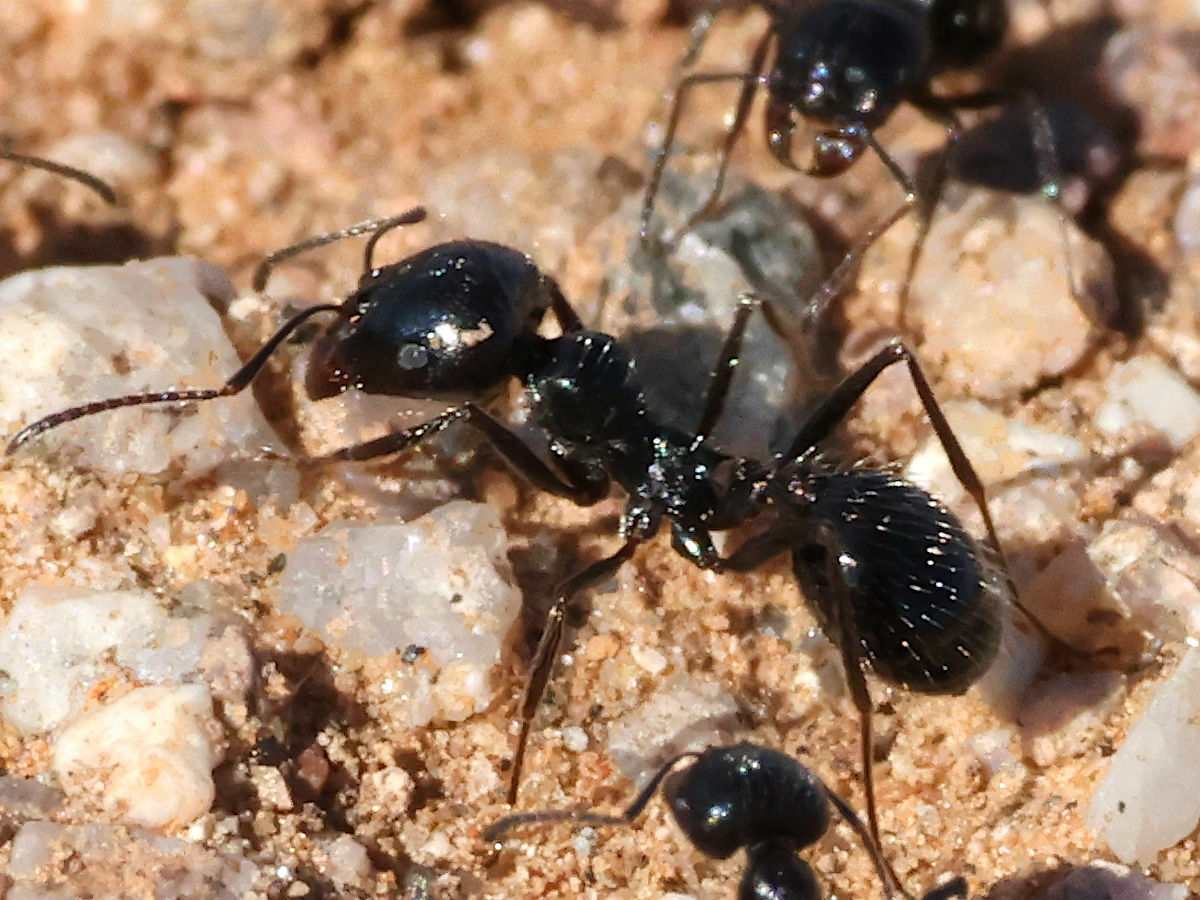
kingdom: Animalia
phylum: Arthropoda
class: Insecta
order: Hymenoptera
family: Formicidae
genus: Messor
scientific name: Messor pergandei
